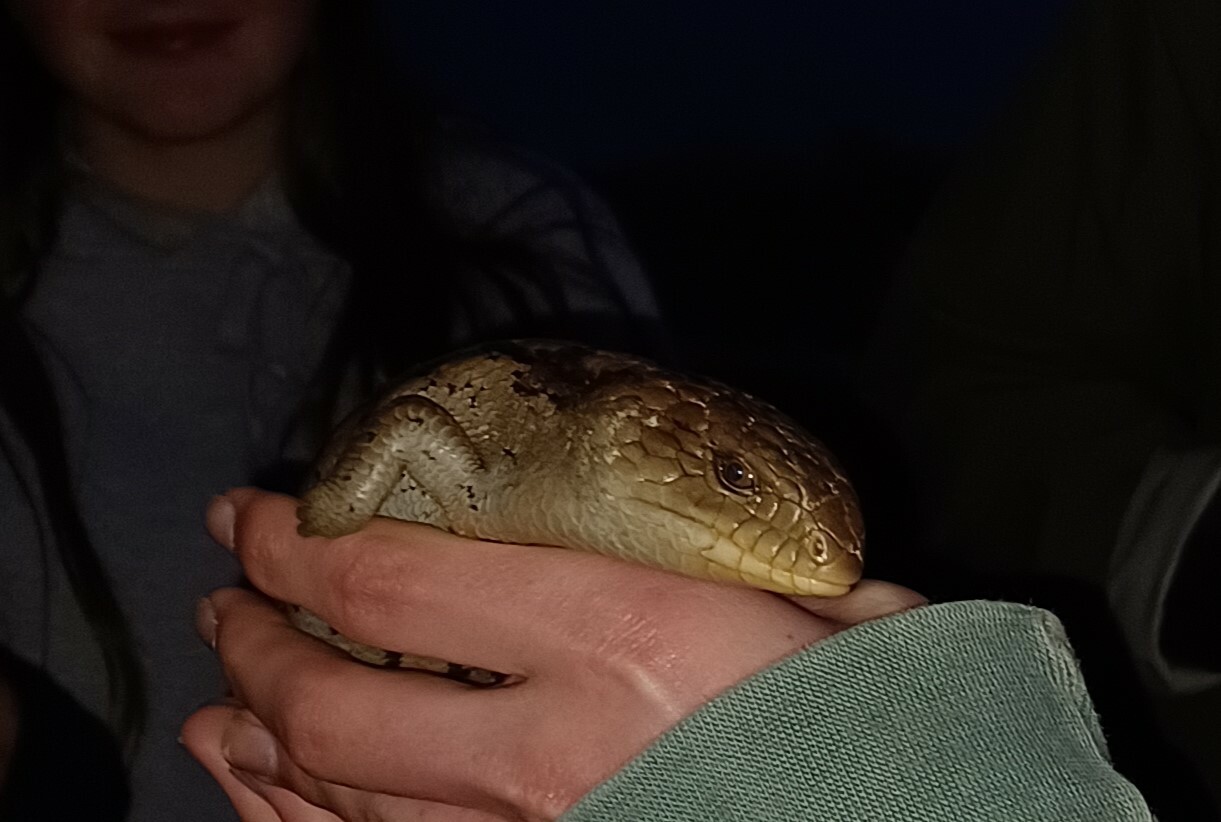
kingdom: Animalia
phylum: Chordata
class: Squamata
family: Scincidae
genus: Tiliqua
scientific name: Tiliqua nigrolutea
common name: Blotched blue-tongued lizard
